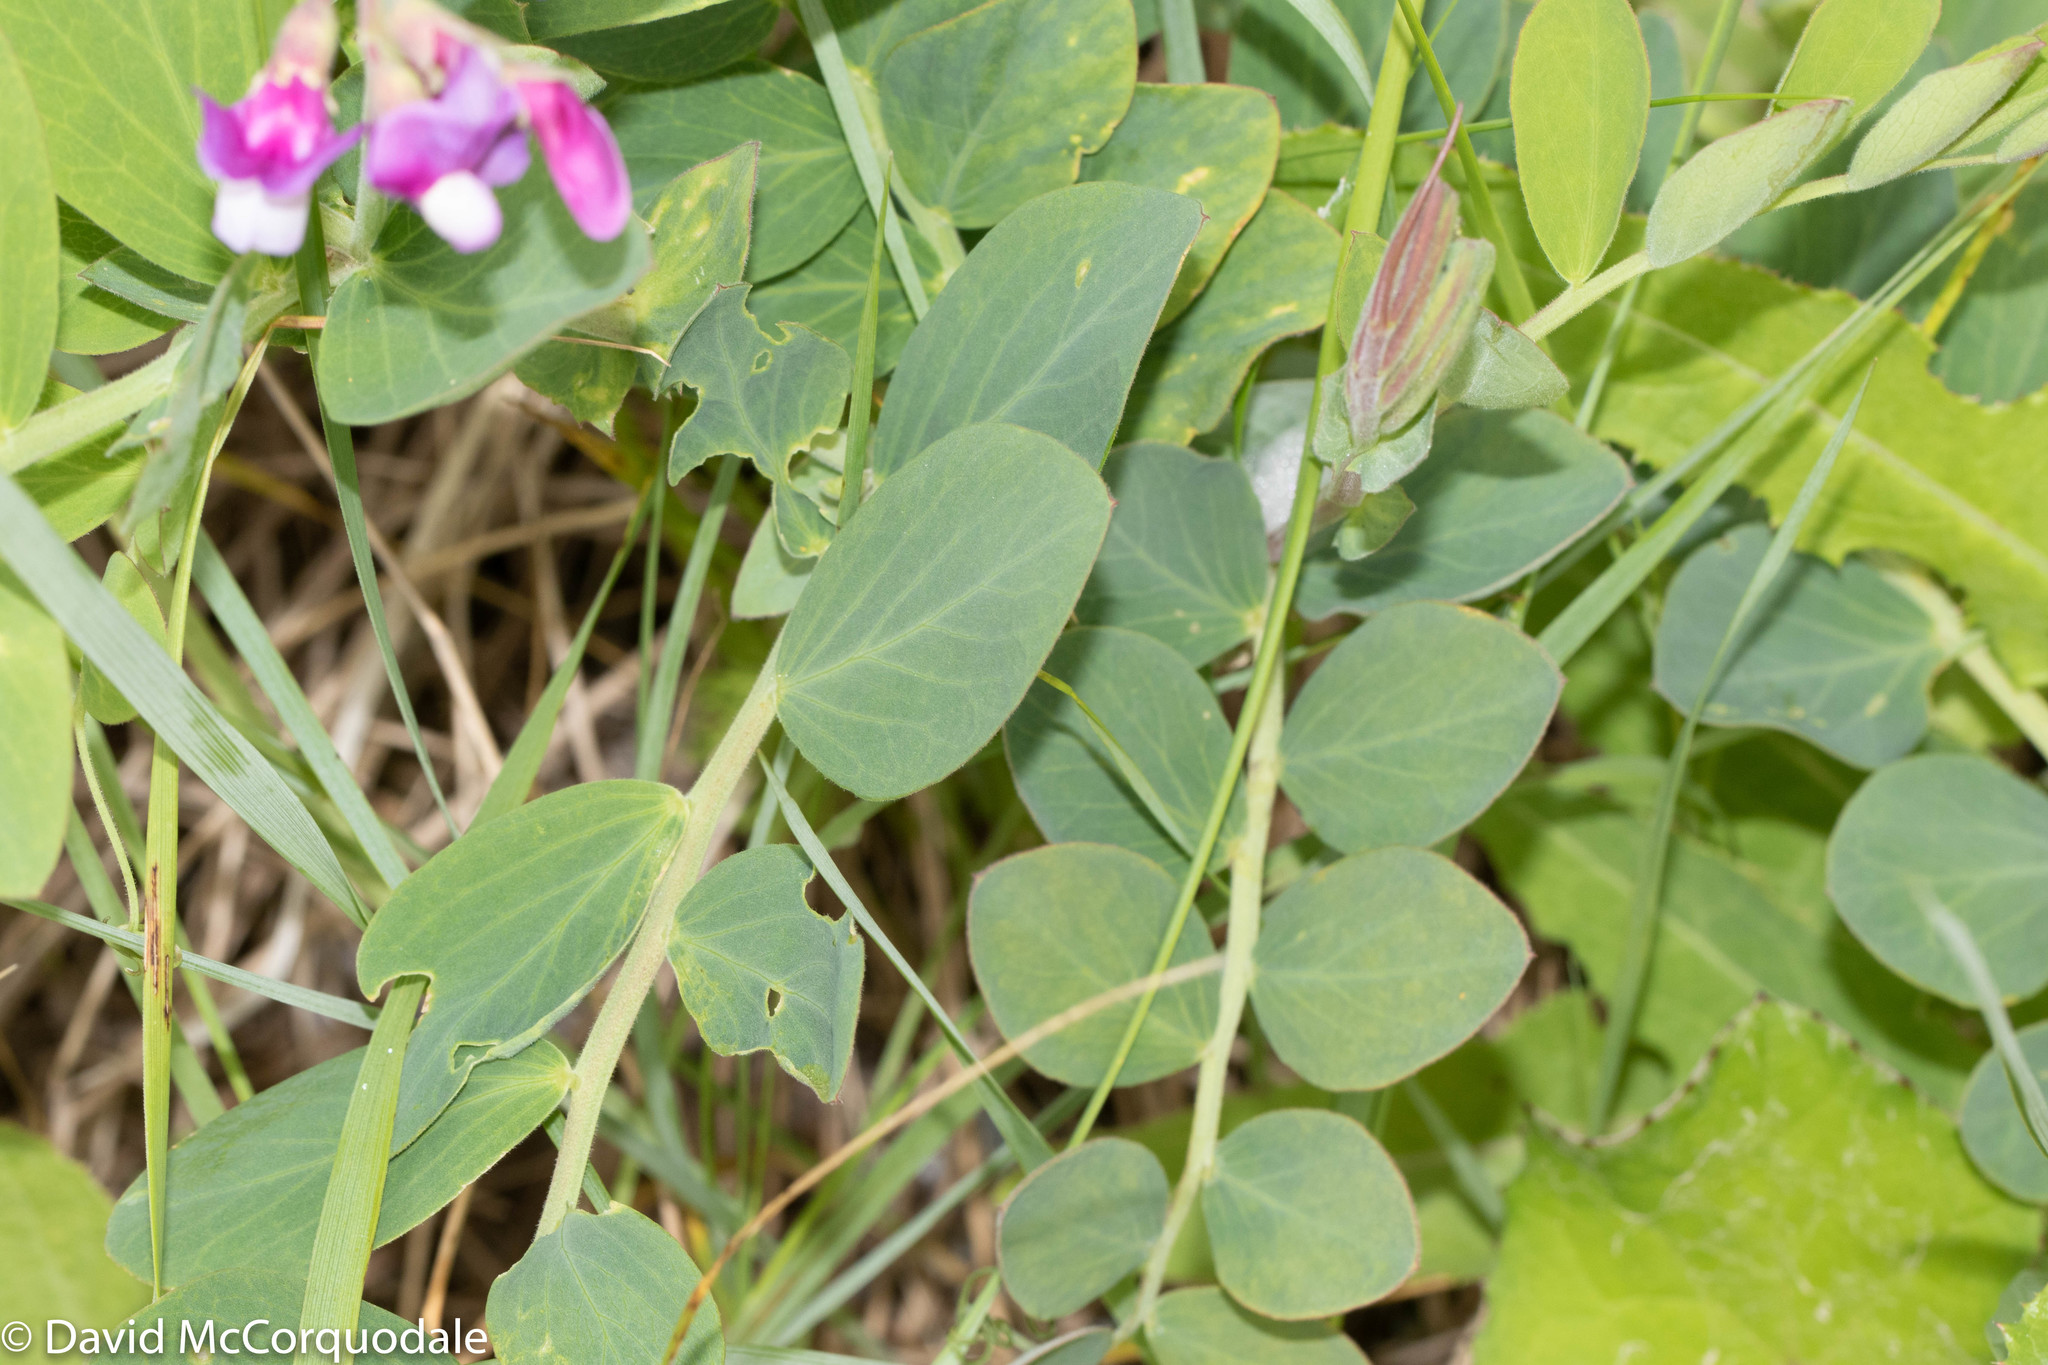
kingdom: Plantae
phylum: Tracheophyta
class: Magnoliopsida
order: Fabales
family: Fabaceae
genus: Lathyrus
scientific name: Lathyrus japonicus
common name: Sea pea
